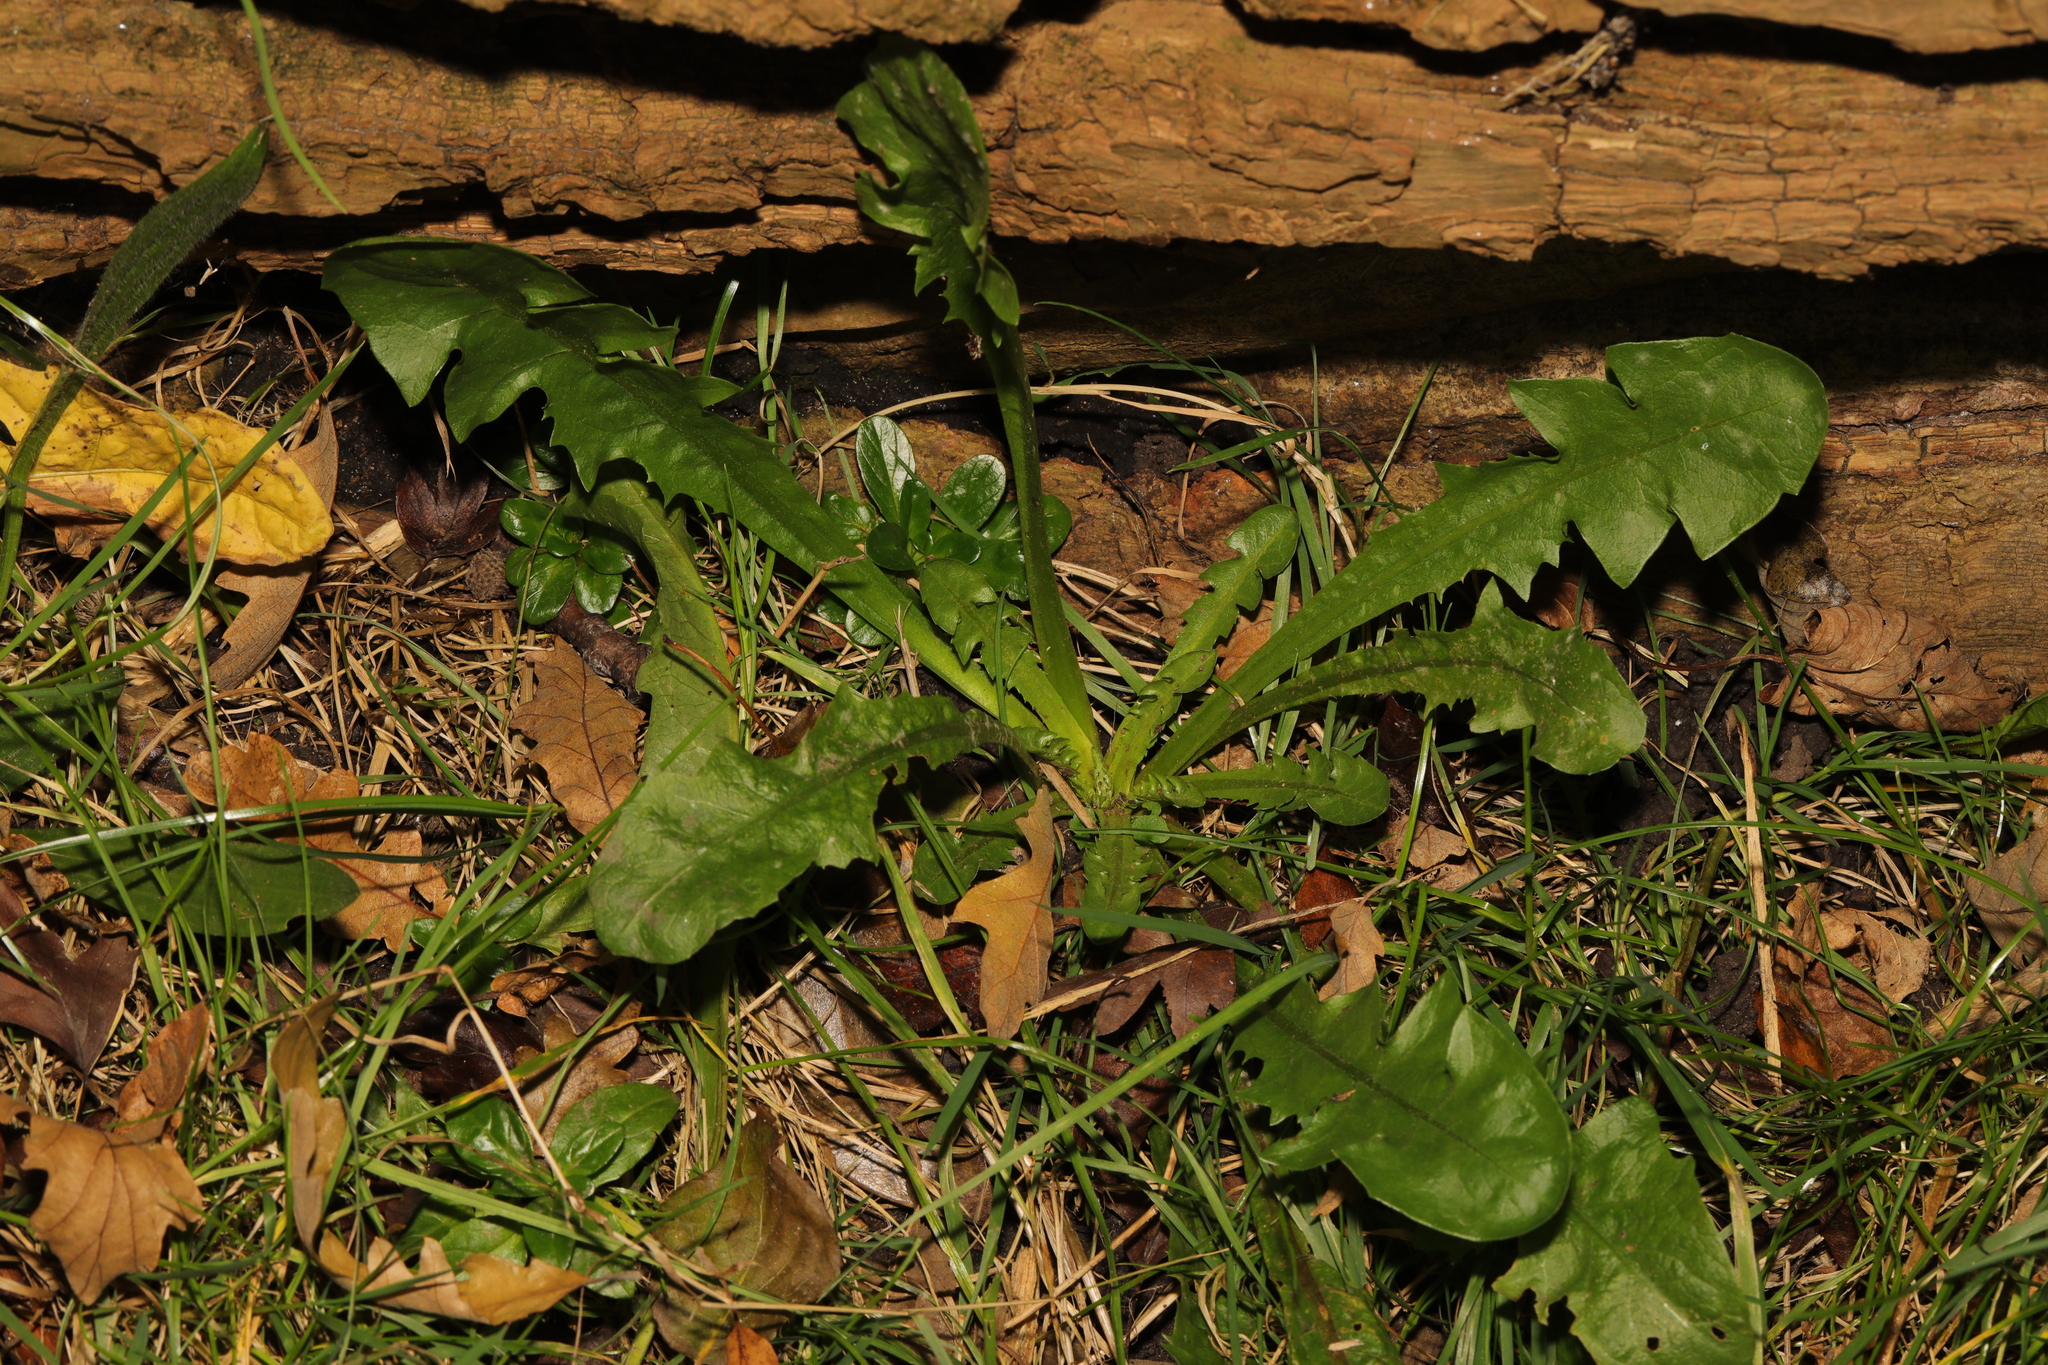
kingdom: Plantae
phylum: Tracheophyta
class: Magnoliopsida
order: Asterales
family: Asteraceae
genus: Taraxacum
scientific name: Taraxacum officinale
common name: Common dandelion
